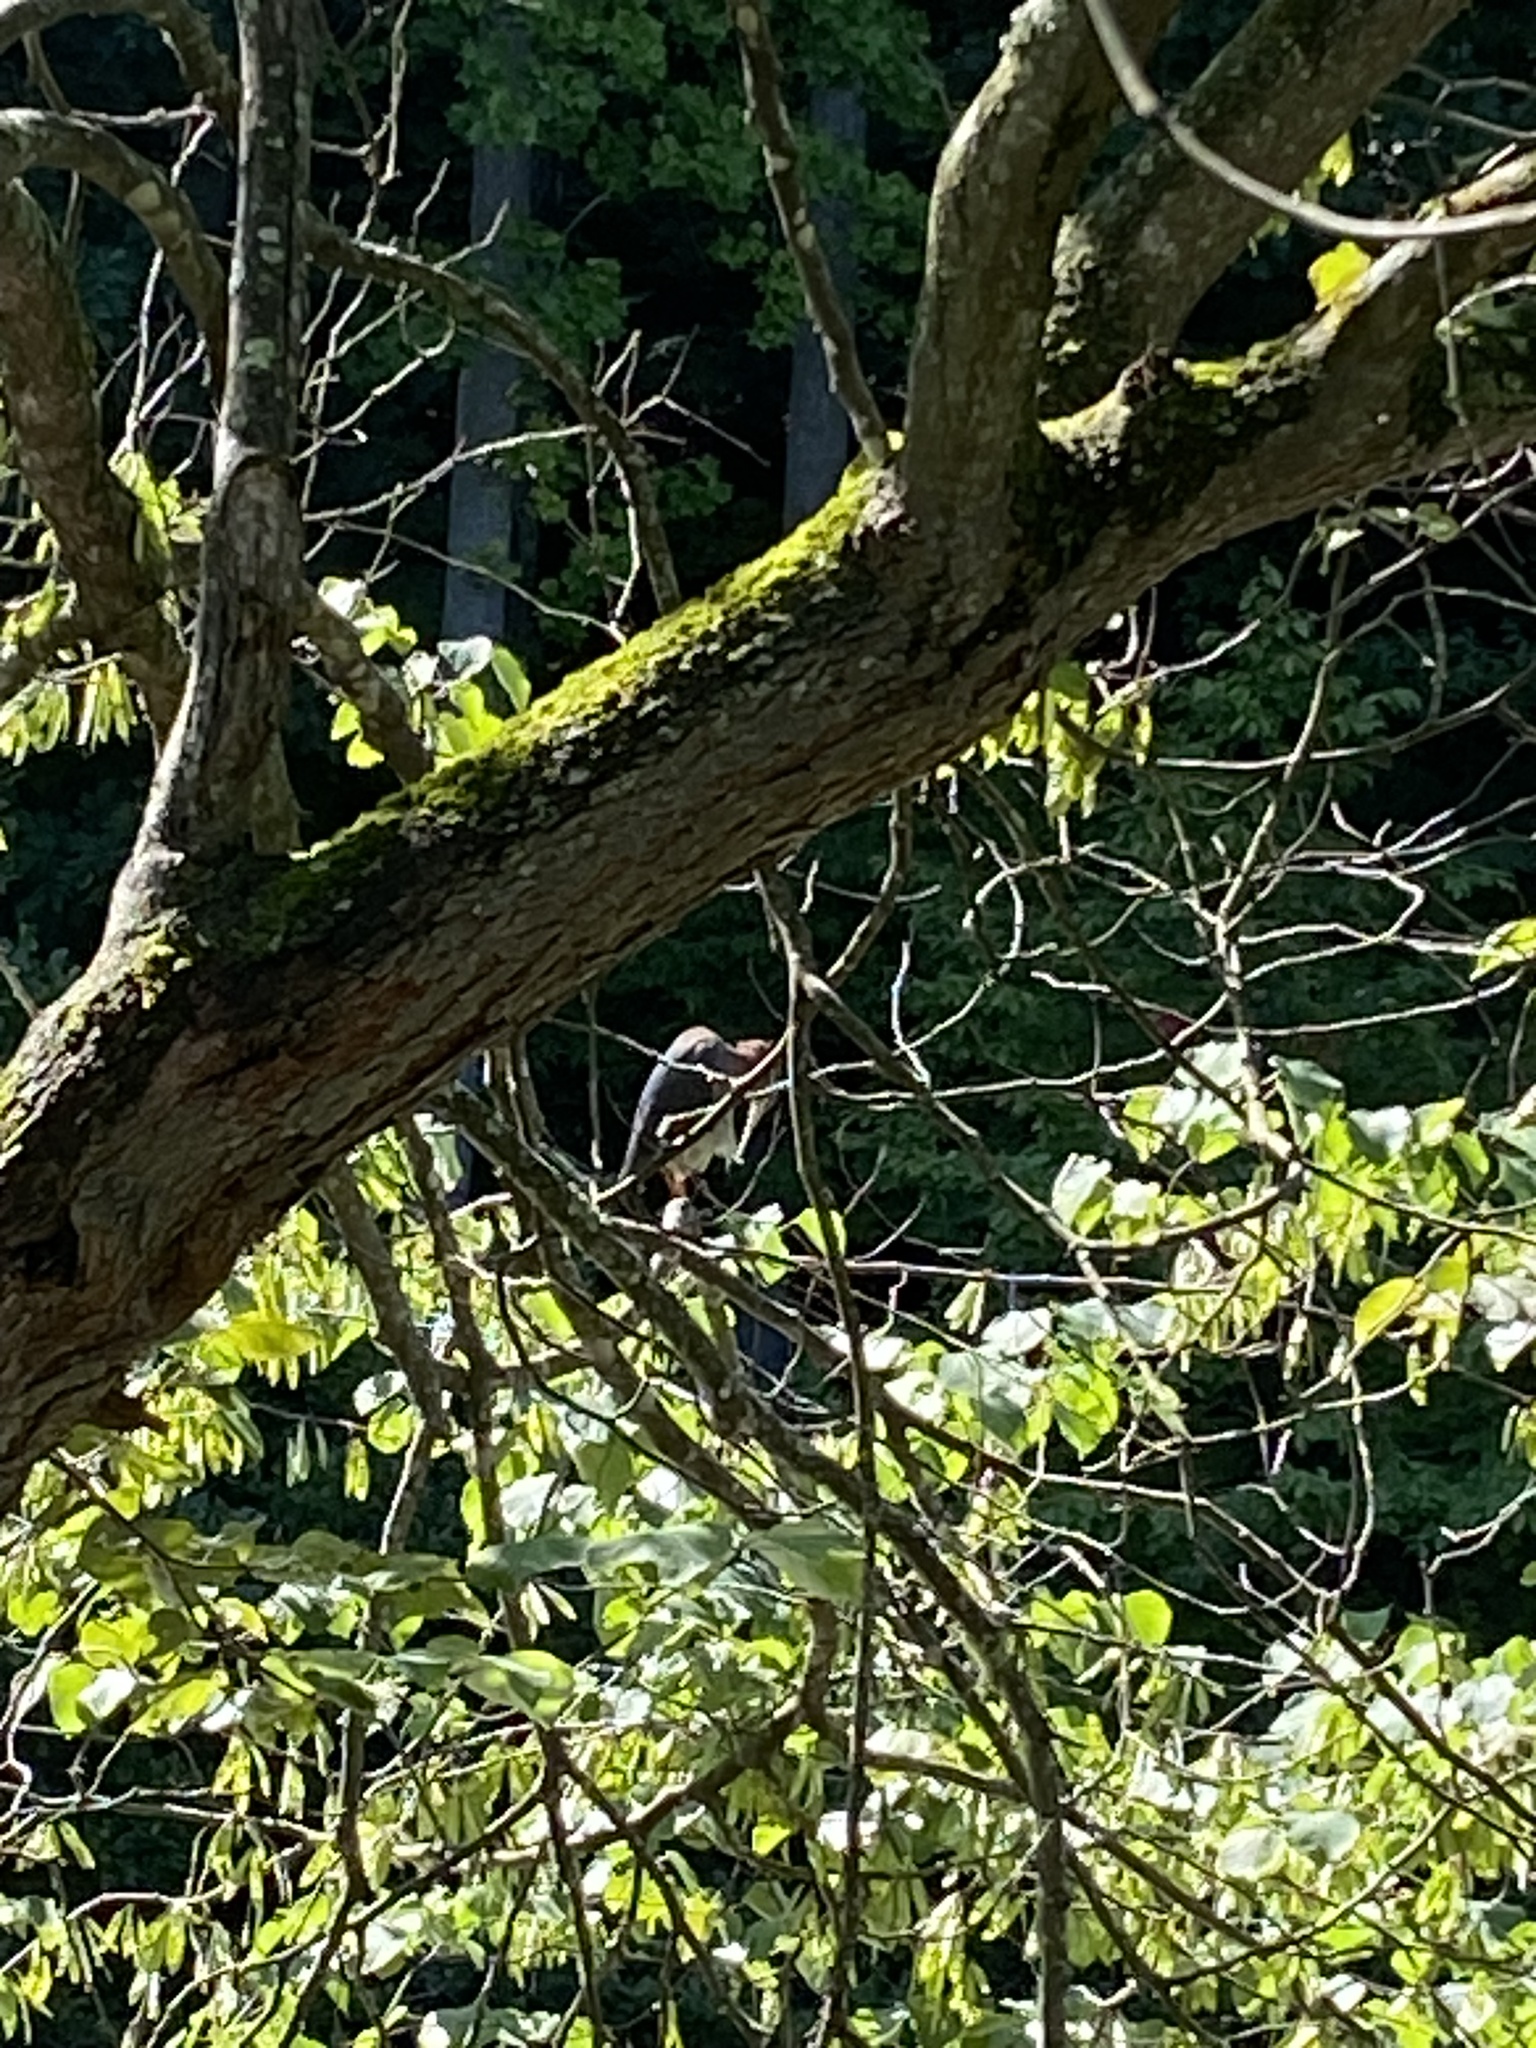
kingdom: Animalia
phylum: Chordata
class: Aves
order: Pelecaniformes
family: Ardeidae
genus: Butorides
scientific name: Butorides virescens
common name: Green heron
